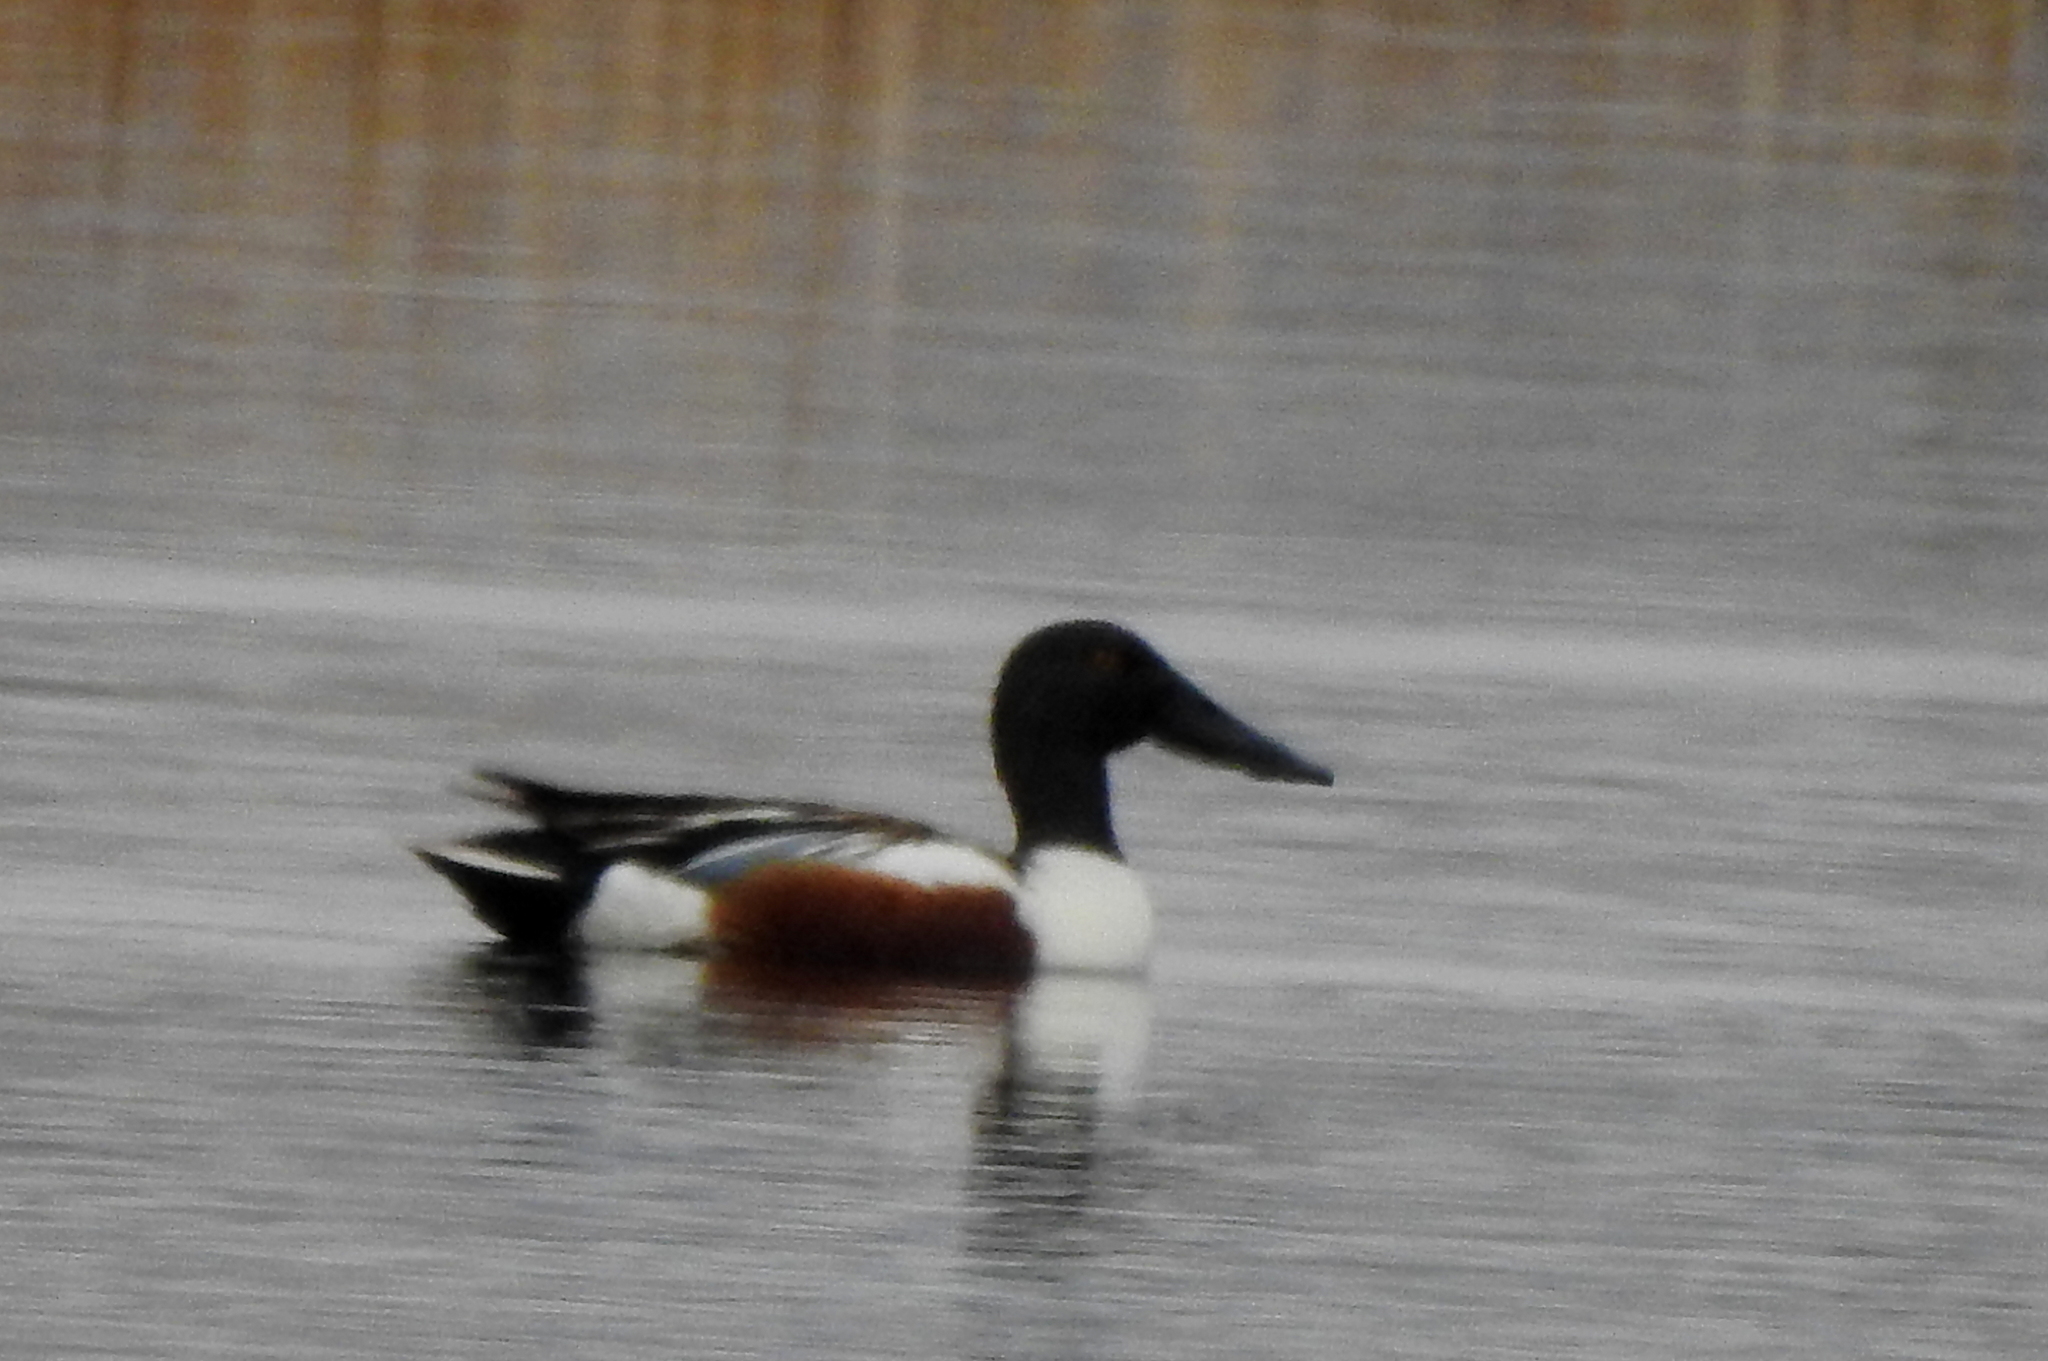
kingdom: Animalia
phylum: Chordata
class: Aves
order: Anseriformes
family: Anatidae
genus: Spatula
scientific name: Spatula clypeata
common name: Northern shoveler
